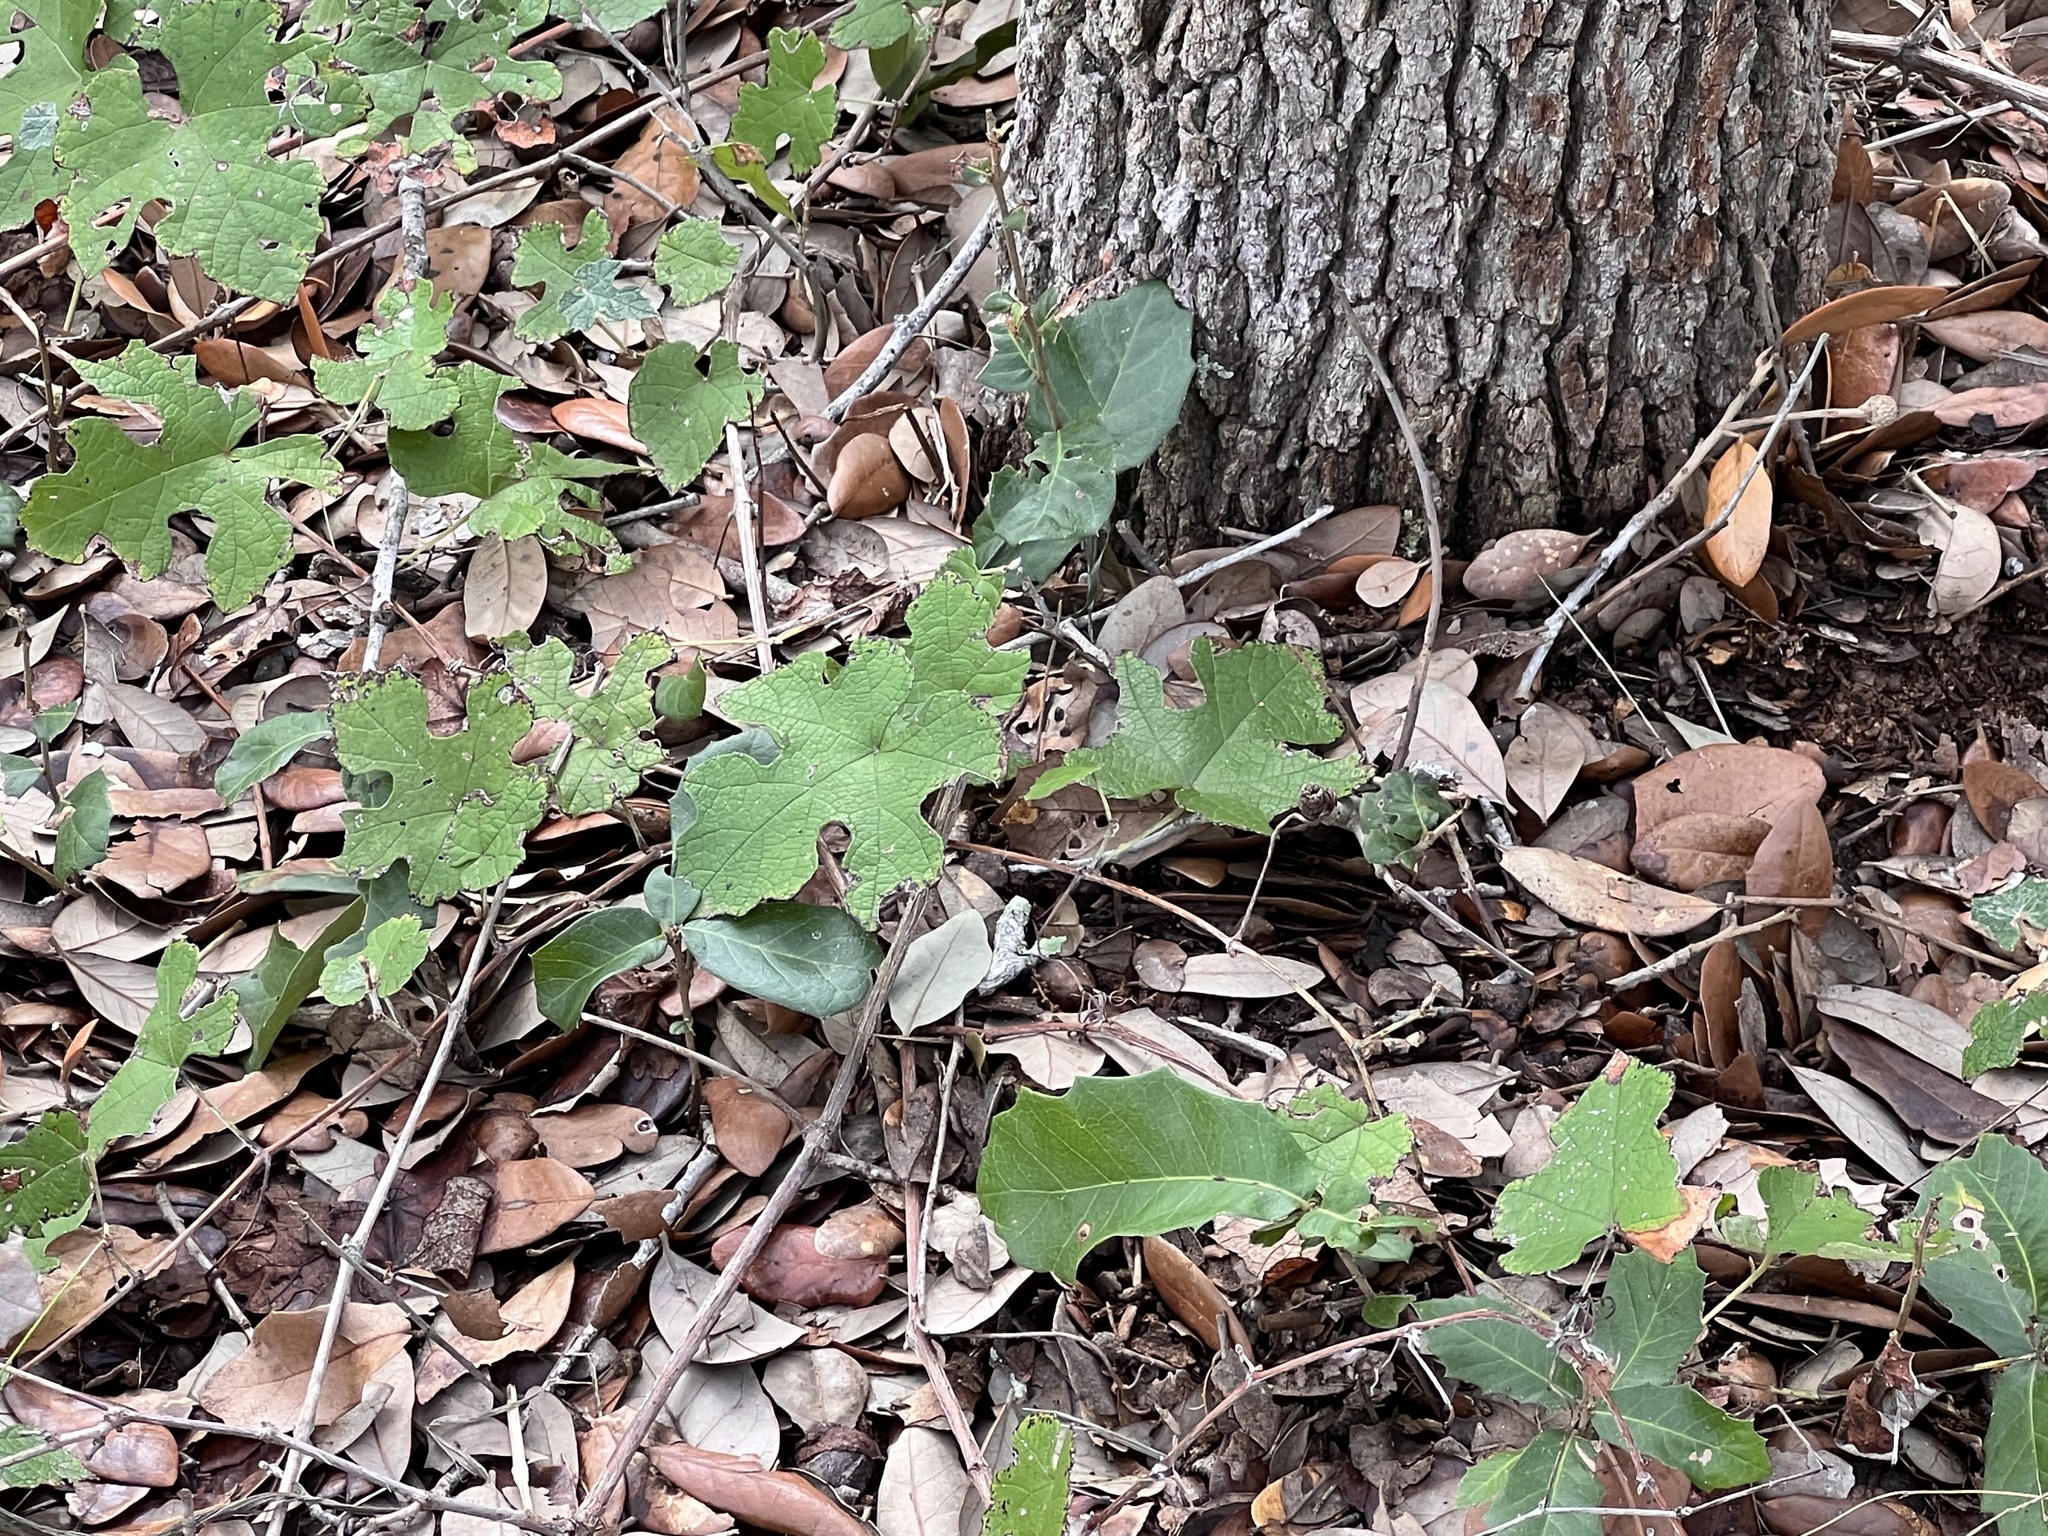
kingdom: Plantae
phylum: Tracheophyta
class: Magnoliopsida
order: Vitales
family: Vitaceae
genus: Vitis
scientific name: Vitis mustangensis
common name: Mustang grape
